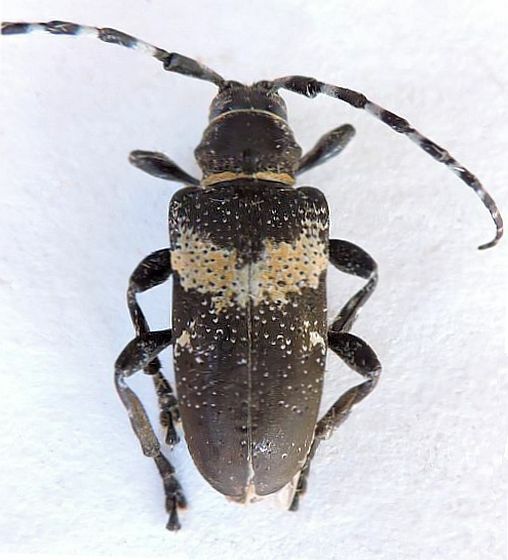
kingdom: Animalia
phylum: Arthropoda
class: Insecta
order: Coleoptera
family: Cerambycidae
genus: Coenopoeus
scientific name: Coenopoeus palmeri
